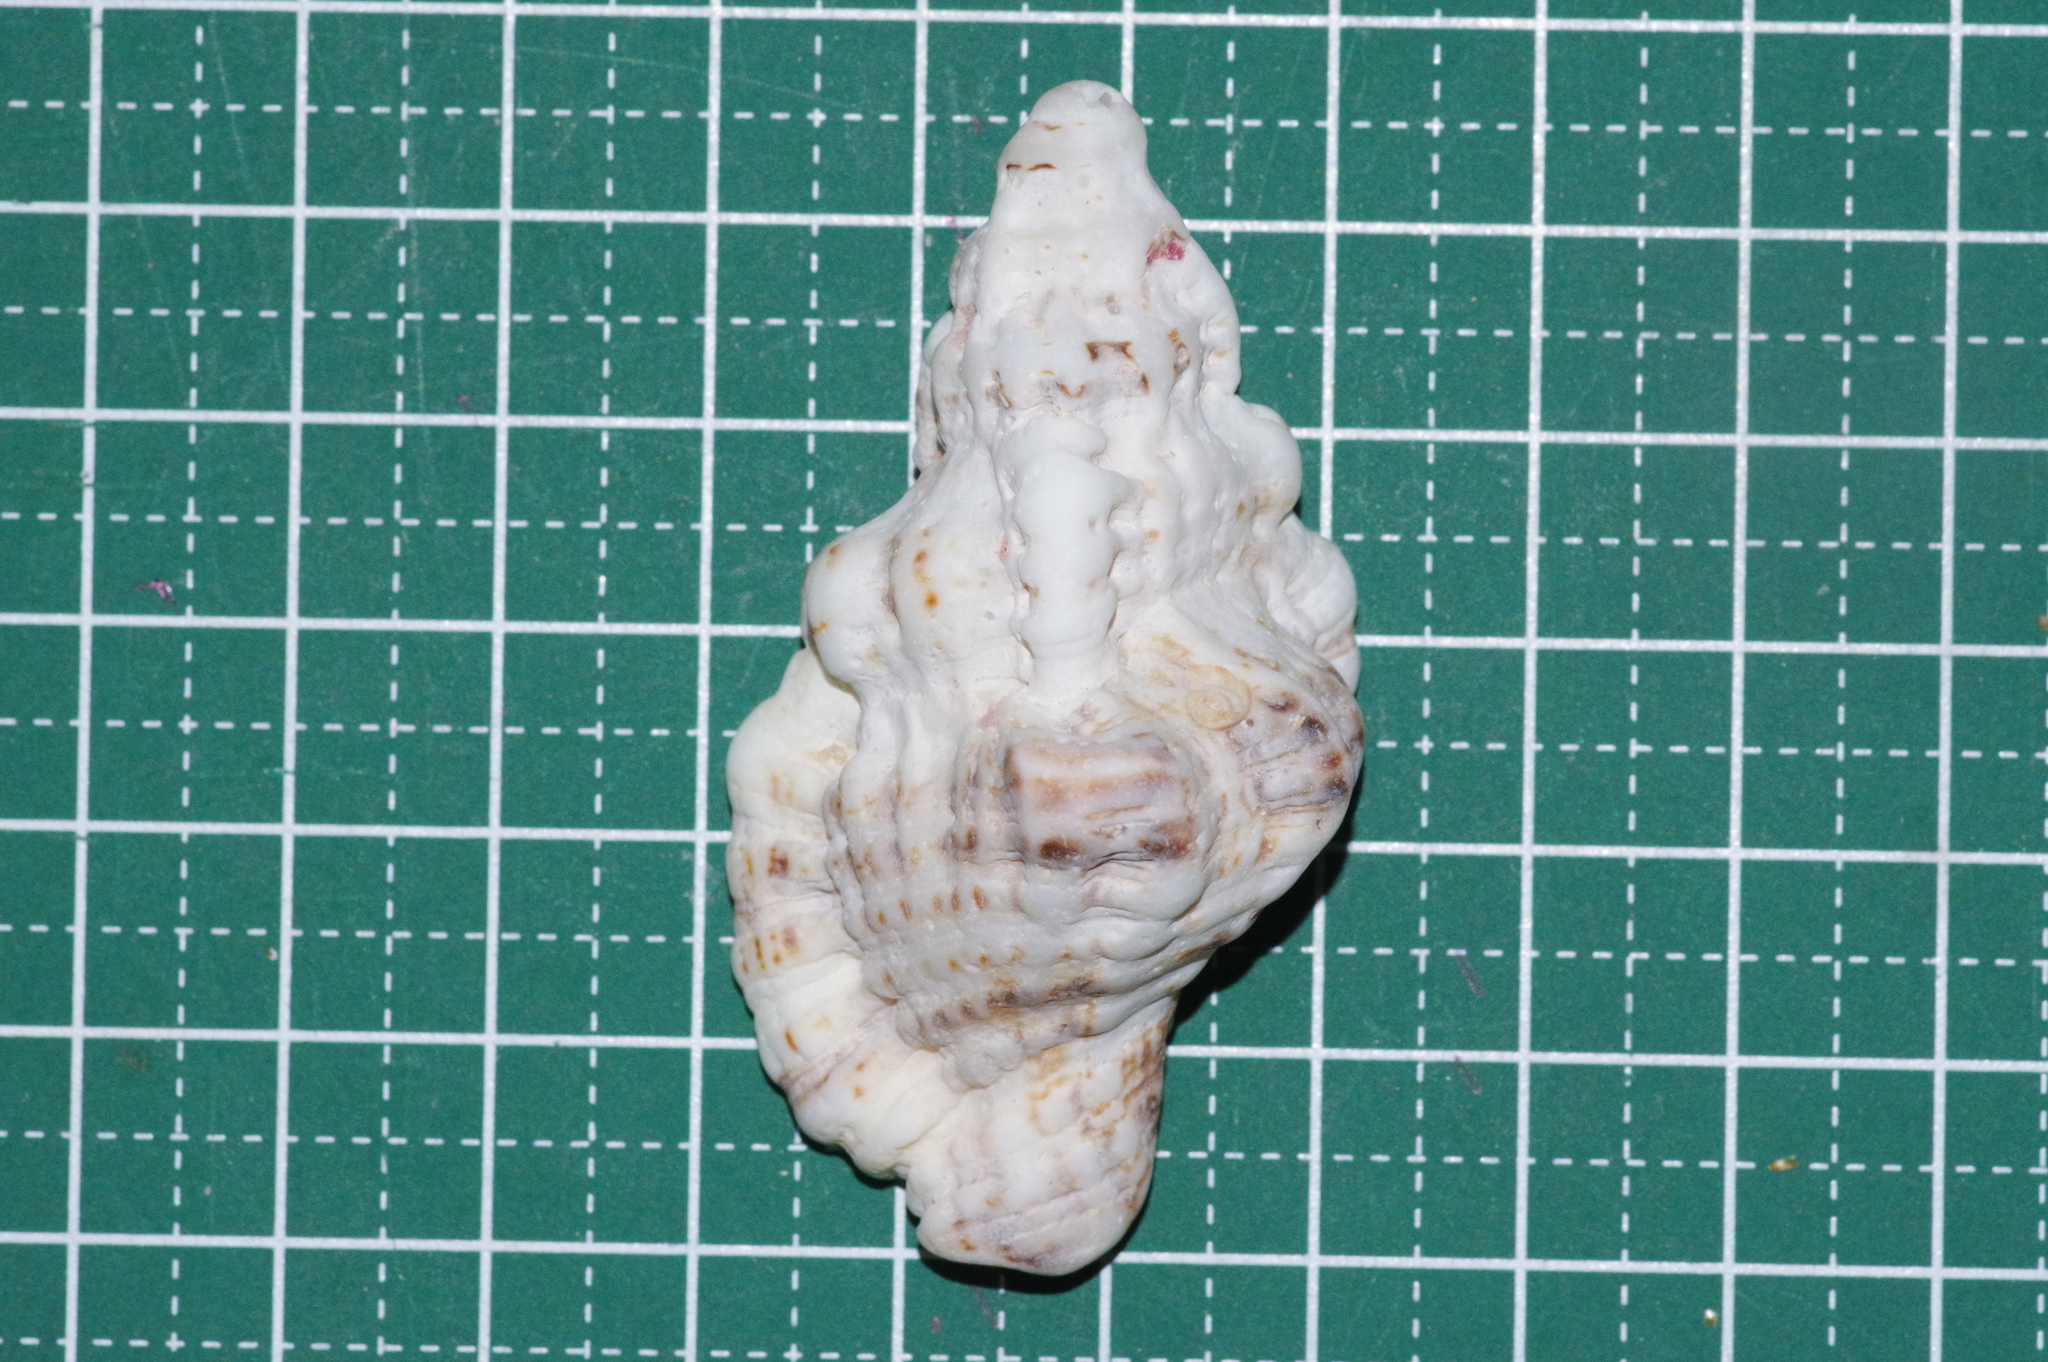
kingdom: Animalia
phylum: Mollusca
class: Gastropoda
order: Littorinimorpha
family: Cymatiidae
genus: Monoplex
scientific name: Monoplex nicobaricus
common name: Goldmouth triton
